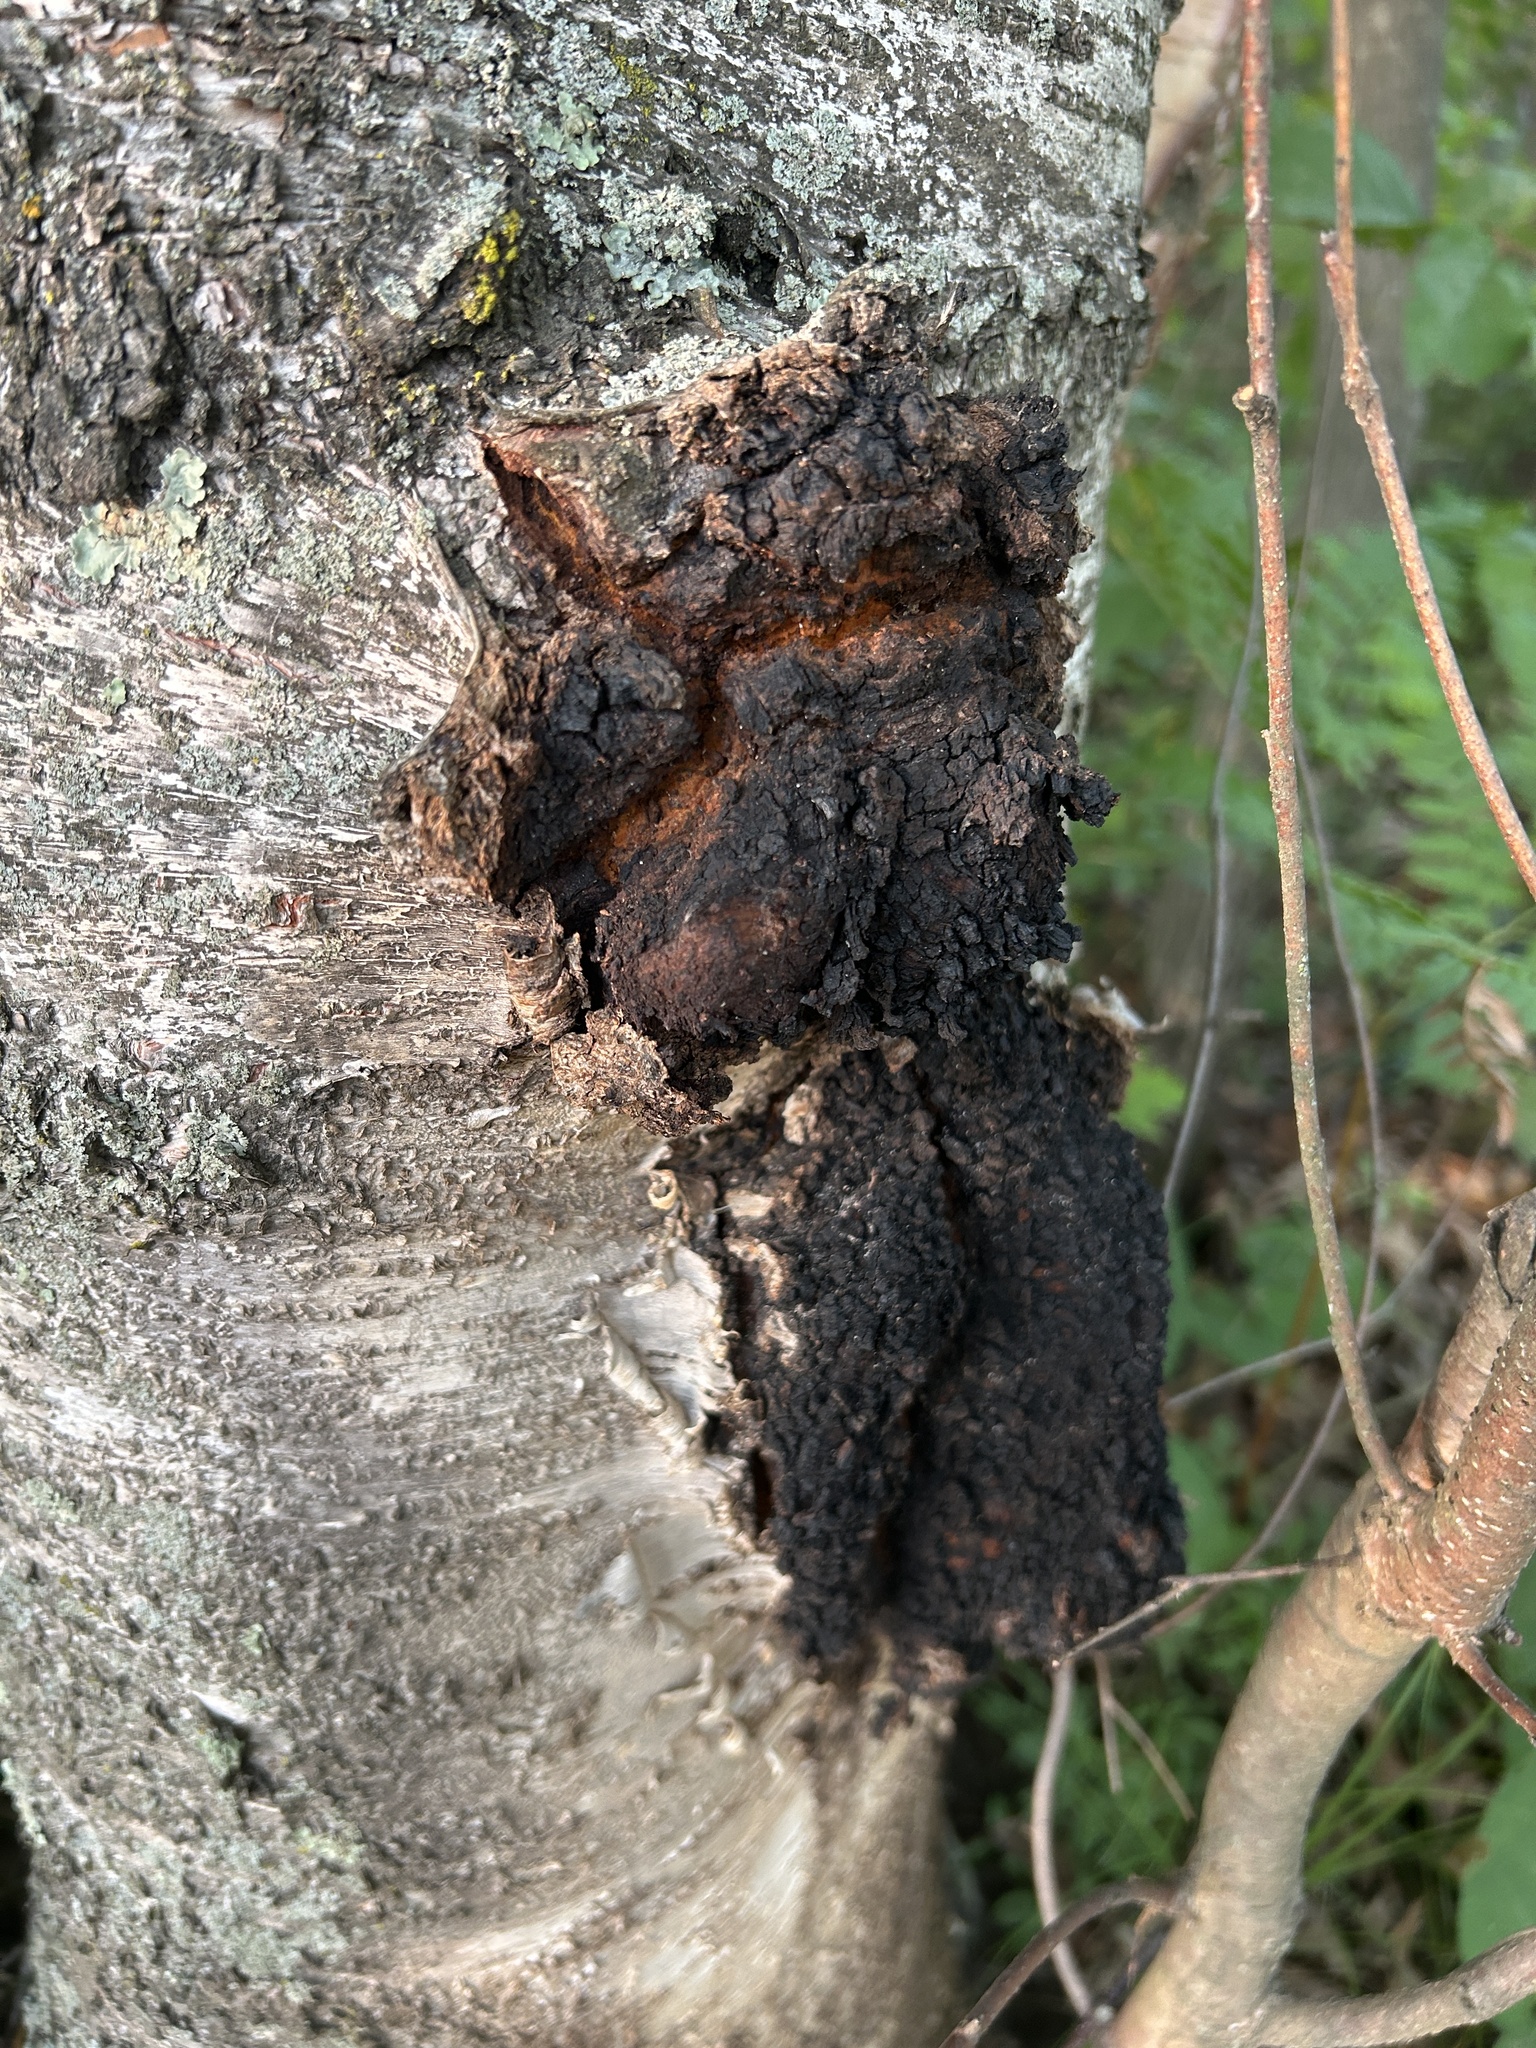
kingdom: Fungi
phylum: Basidiomycota
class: Agaricomycetes
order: Hymenochaetales
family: Hymenochaetaceae
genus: Inonotus
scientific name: Inonotus obliquus
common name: Chaga
